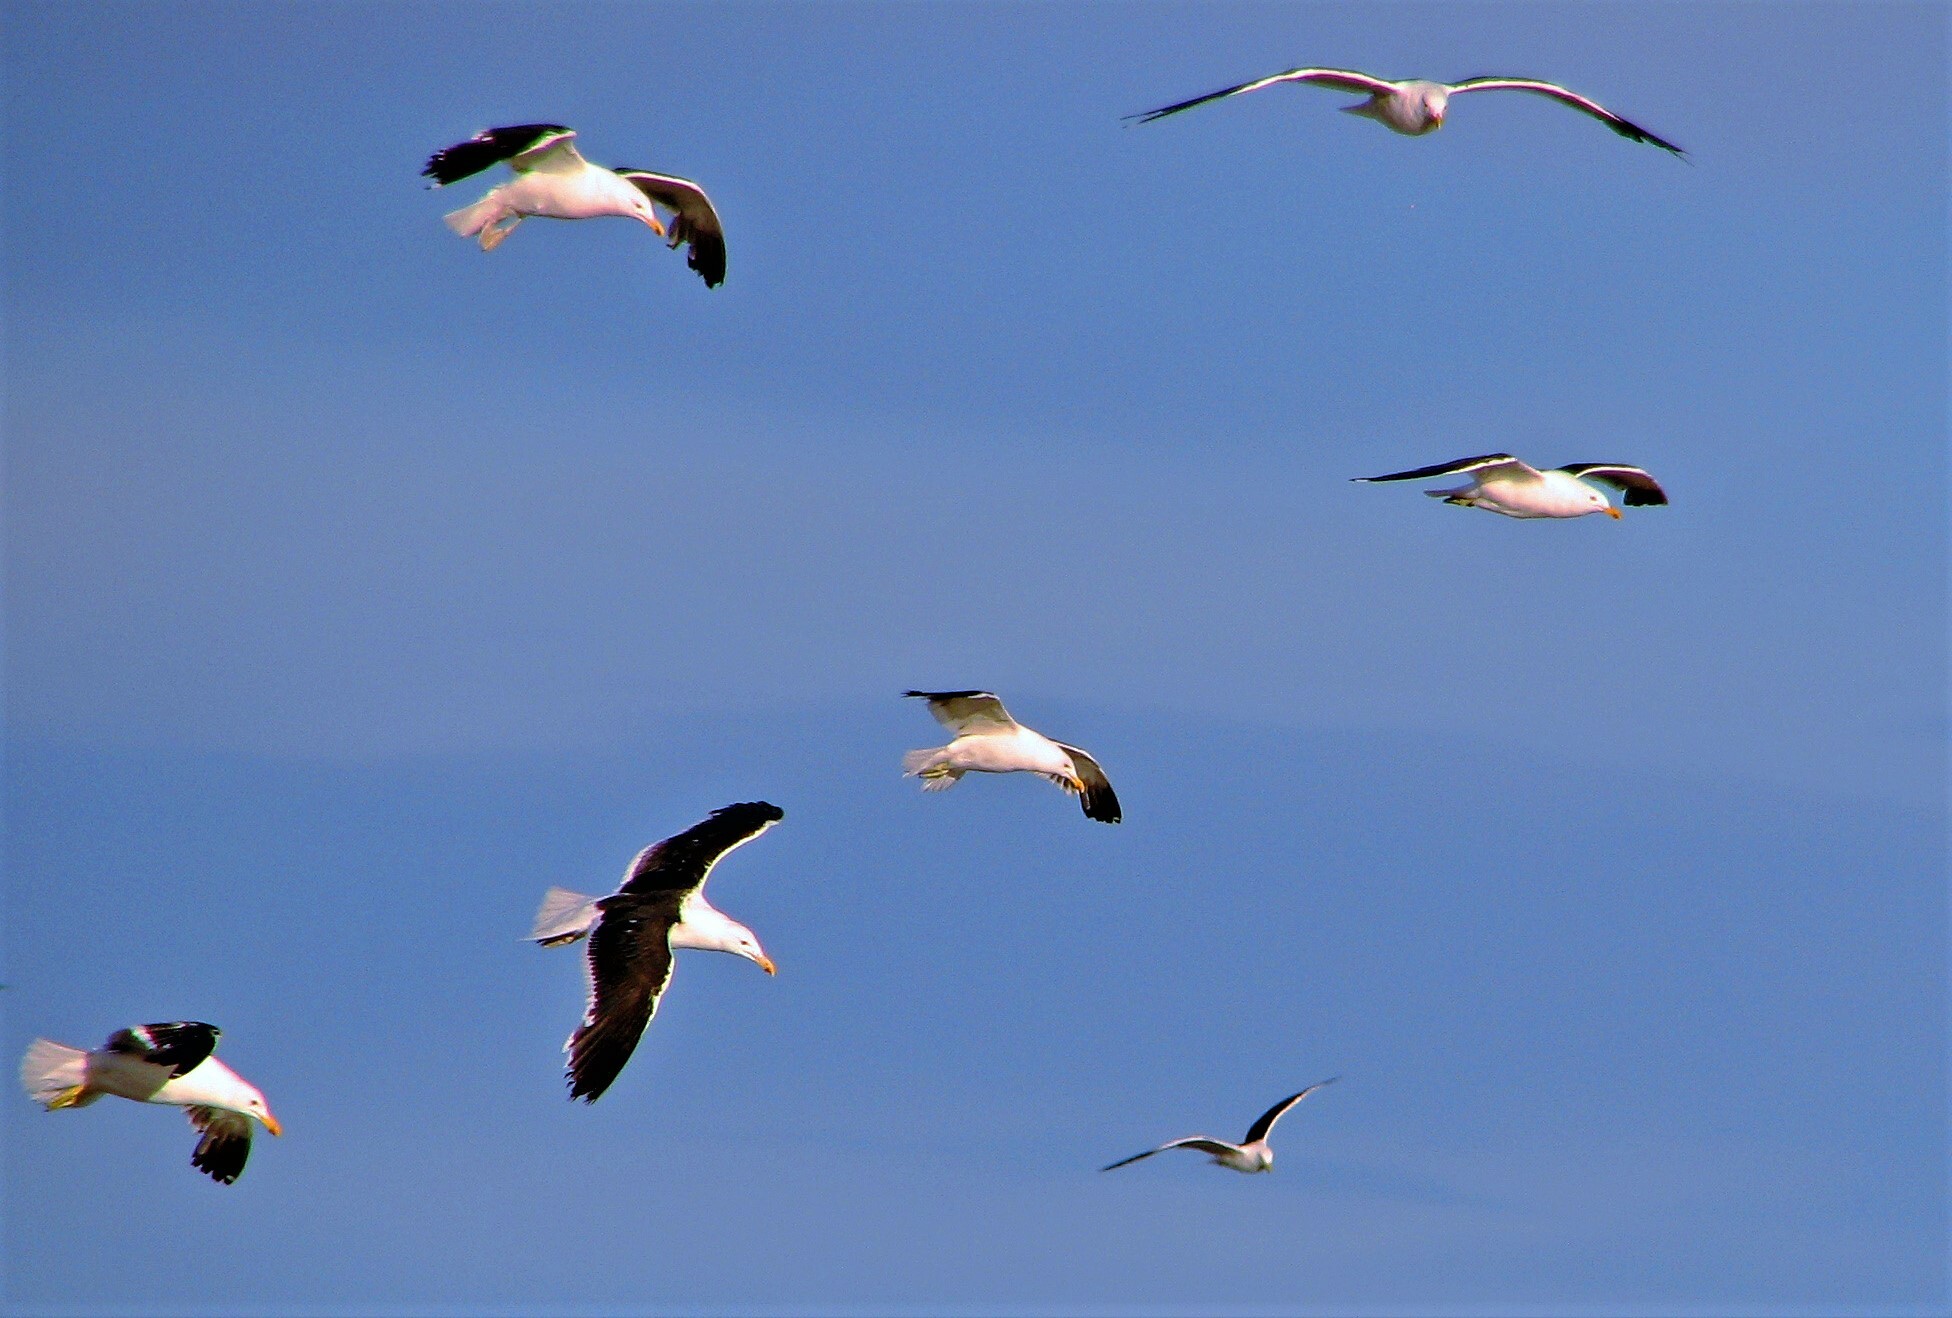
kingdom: Animalia
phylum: Chordata
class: Aves
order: Charadriiformes
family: Laridae
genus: Larus
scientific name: Larus dominicanus
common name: Kelp gull
